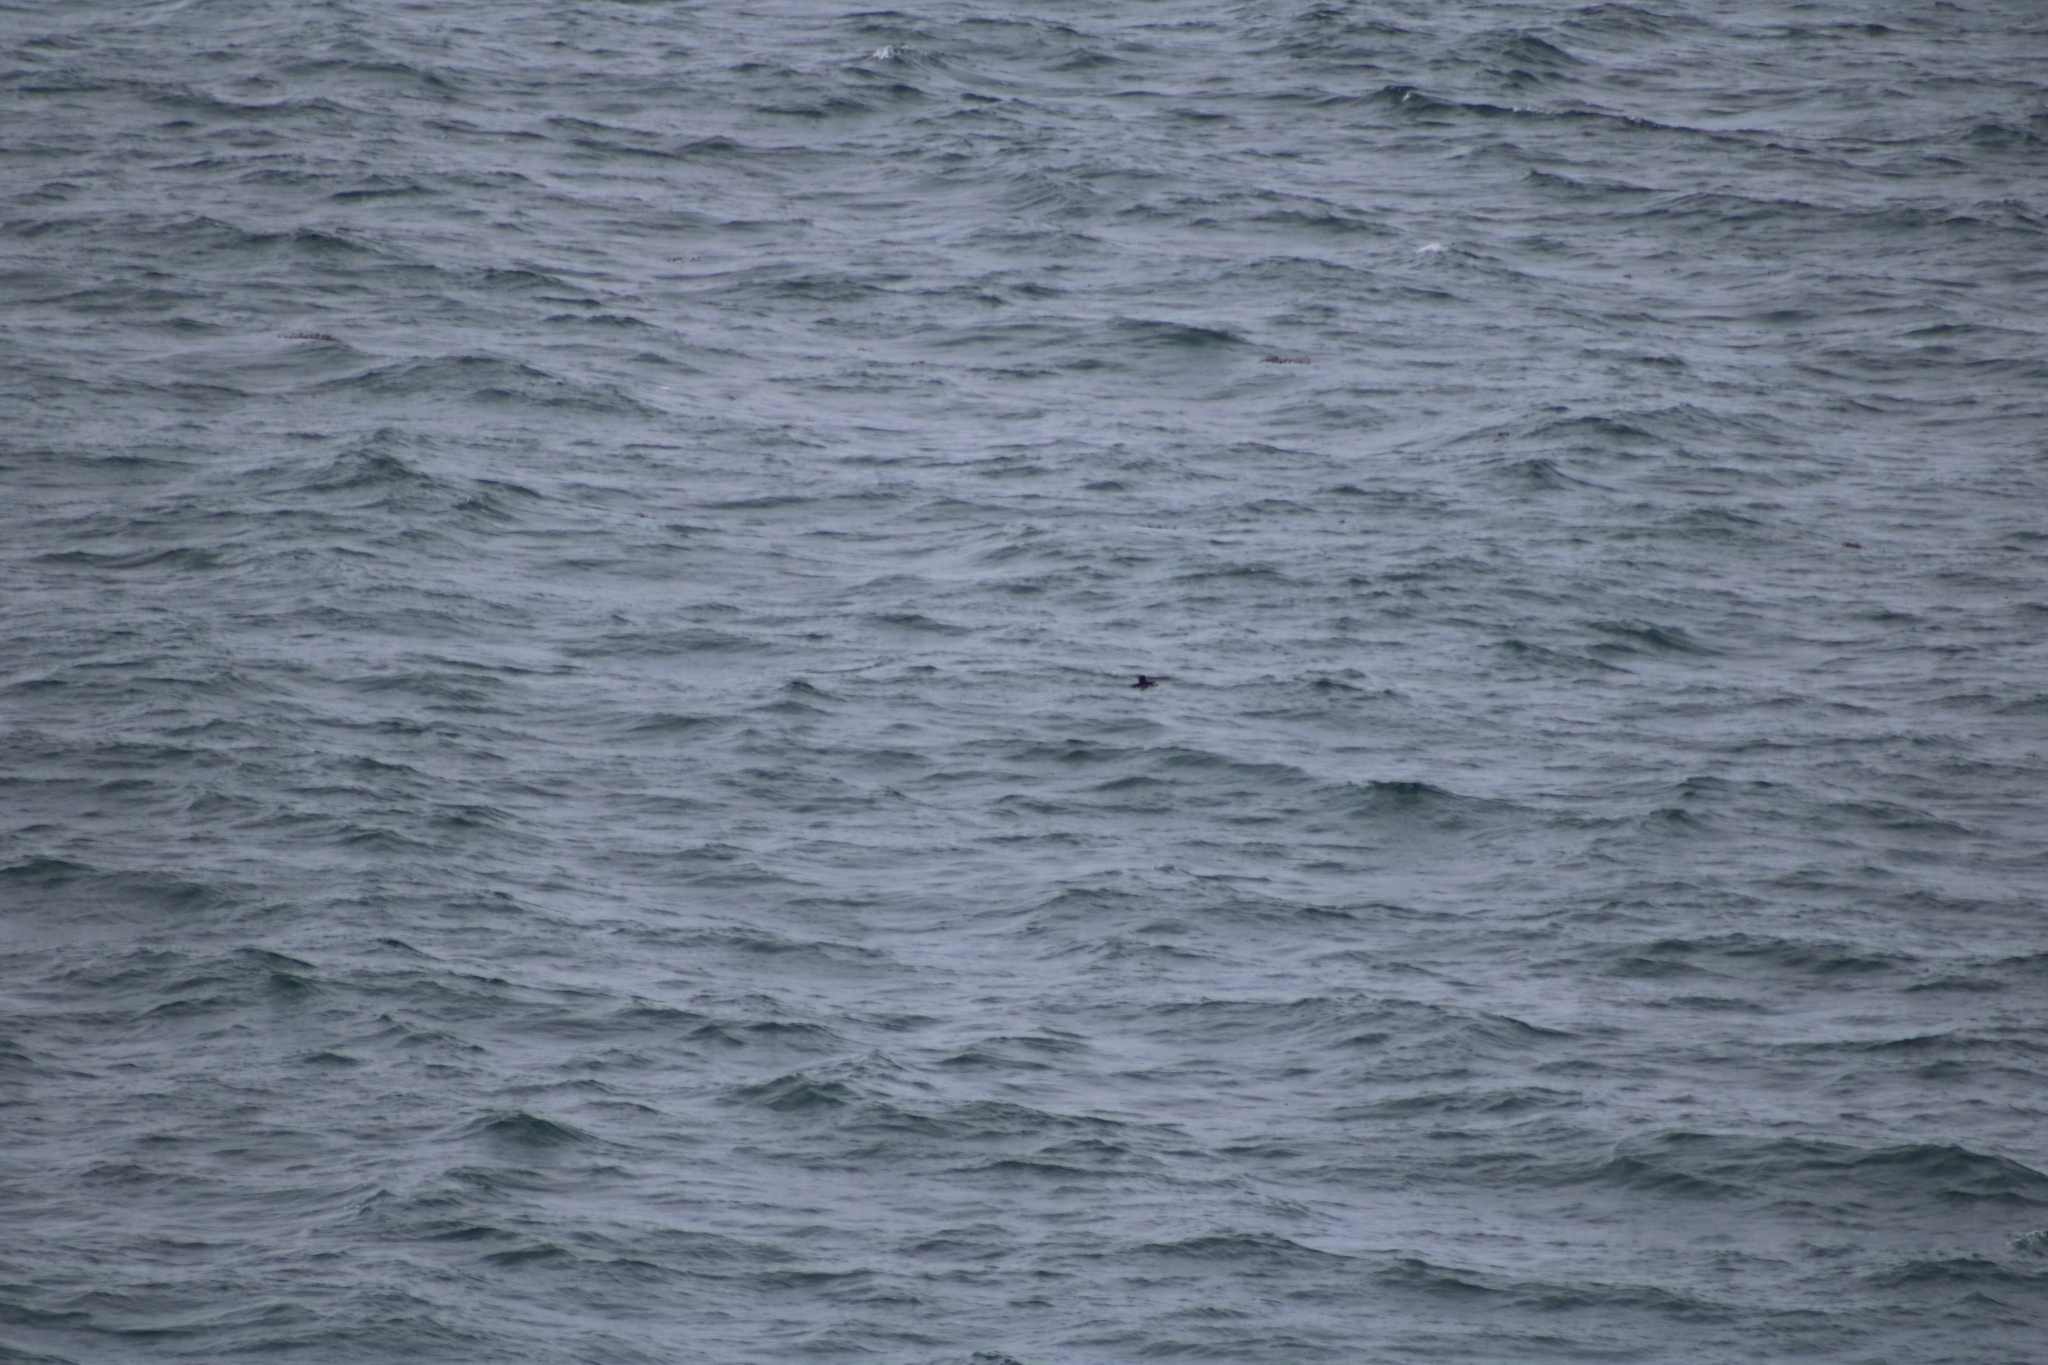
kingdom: Animalia
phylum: Chordata
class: Aves
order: Charadriiformes
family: Alcidae
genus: Fratercula
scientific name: Fratercula arctica
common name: Atlantic puffin
